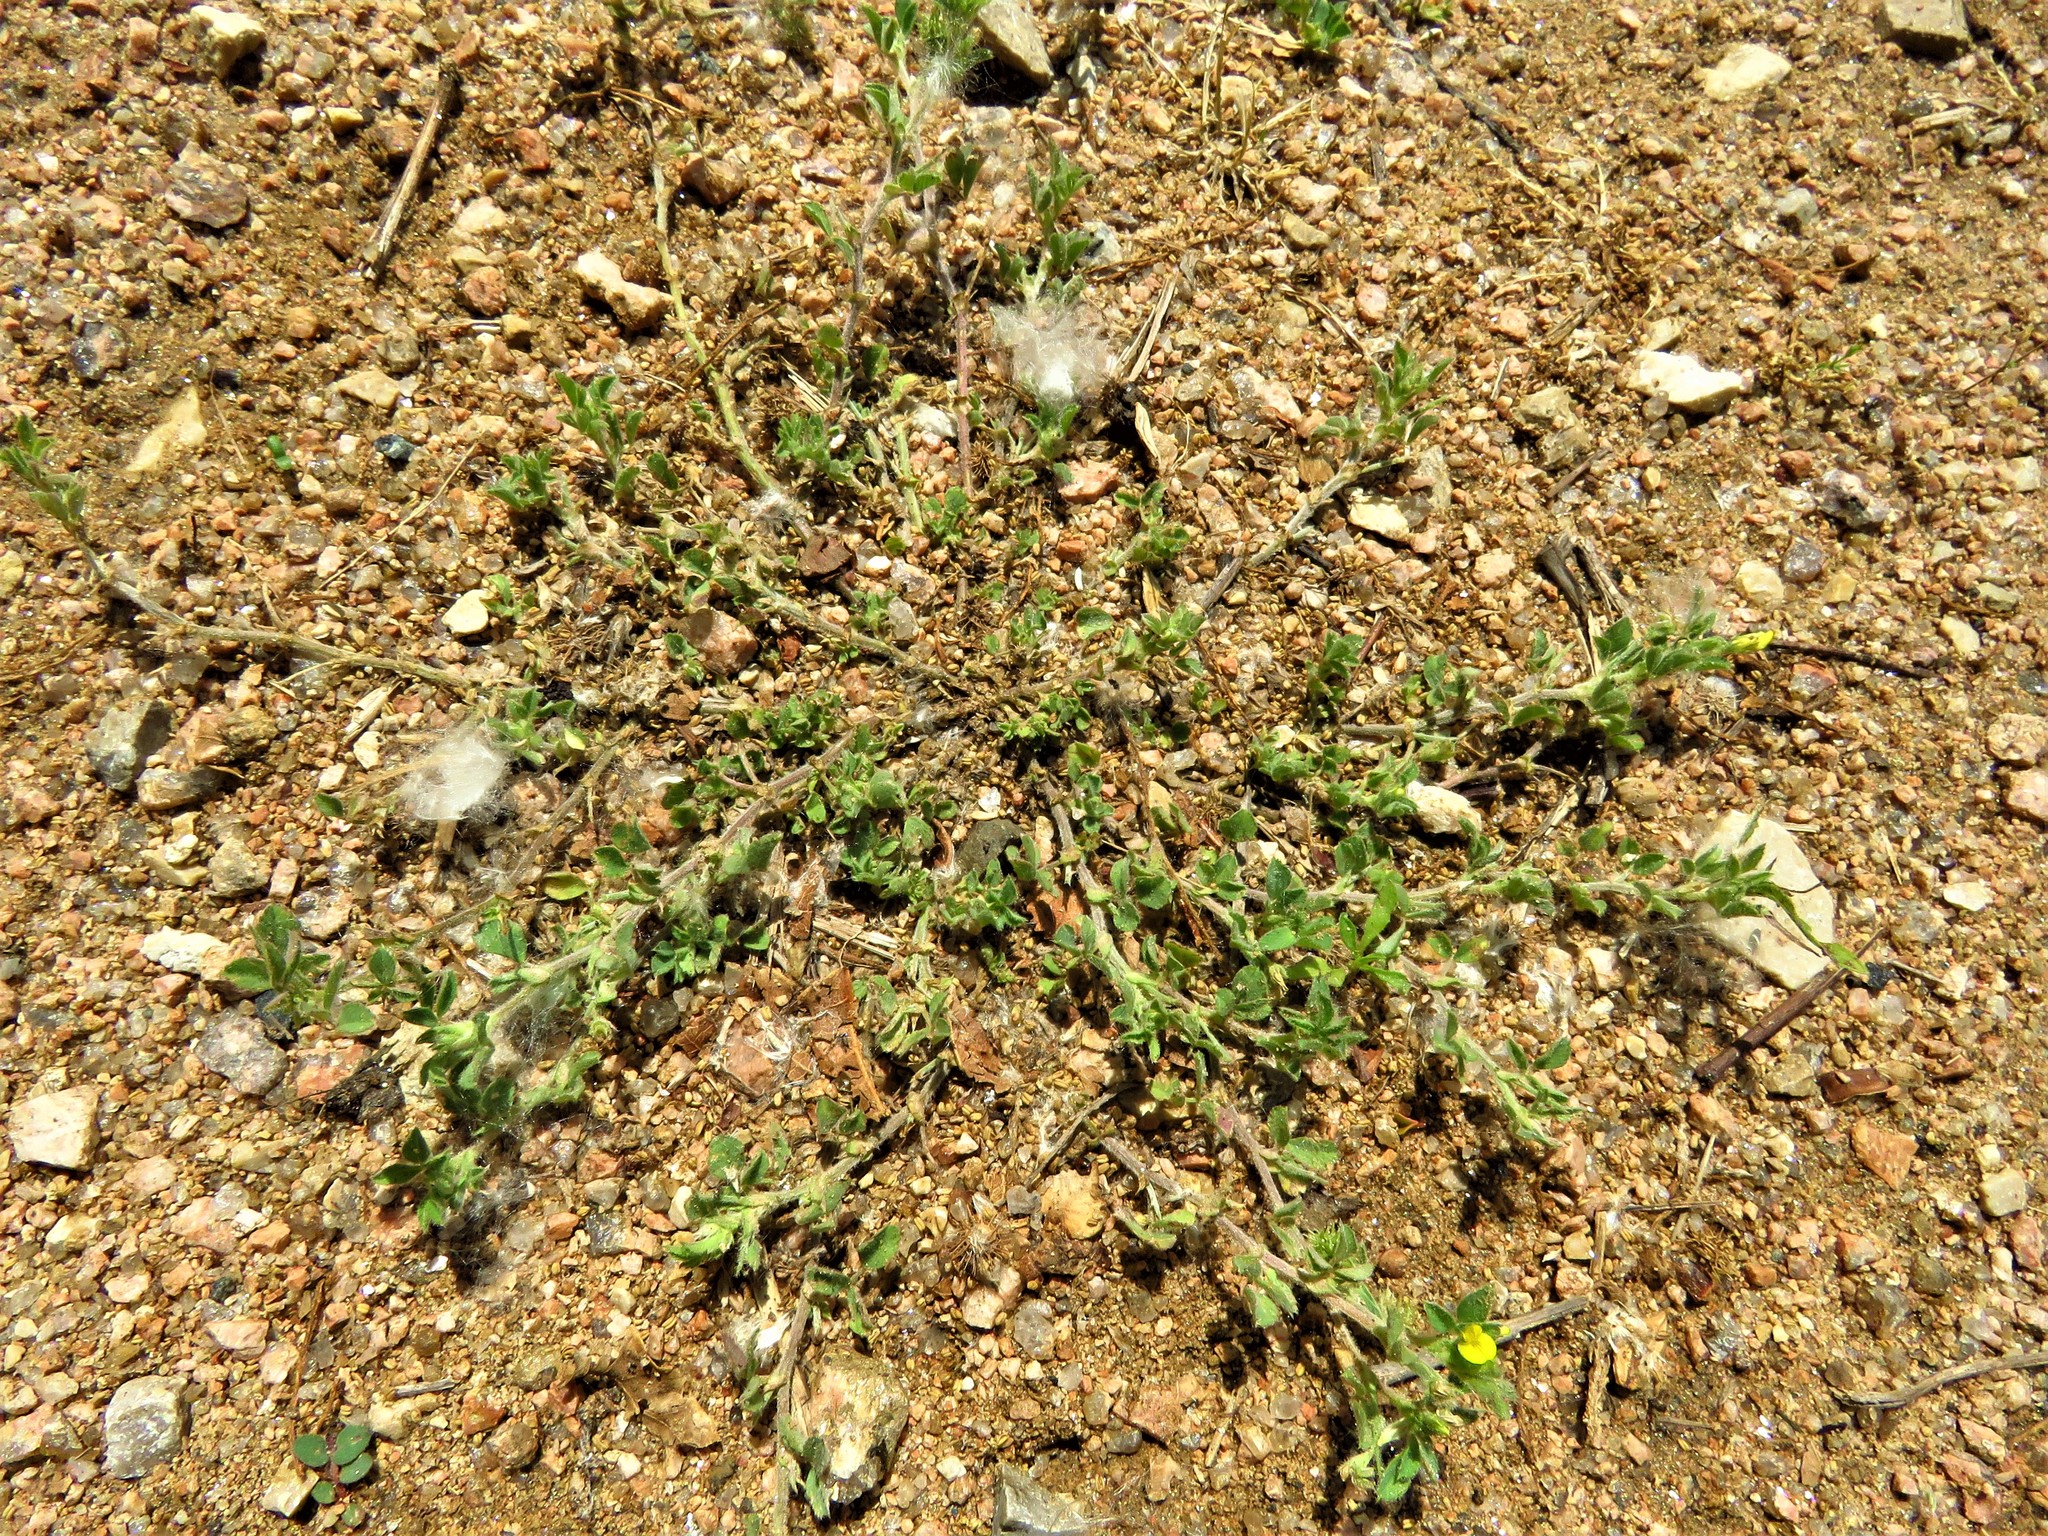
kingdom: Plantae
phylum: Tracheophyta
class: Magnoliopsida
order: Fabales
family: Fabaceae
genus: Medicago
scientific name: Medicago minima
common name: Little bur-clover
